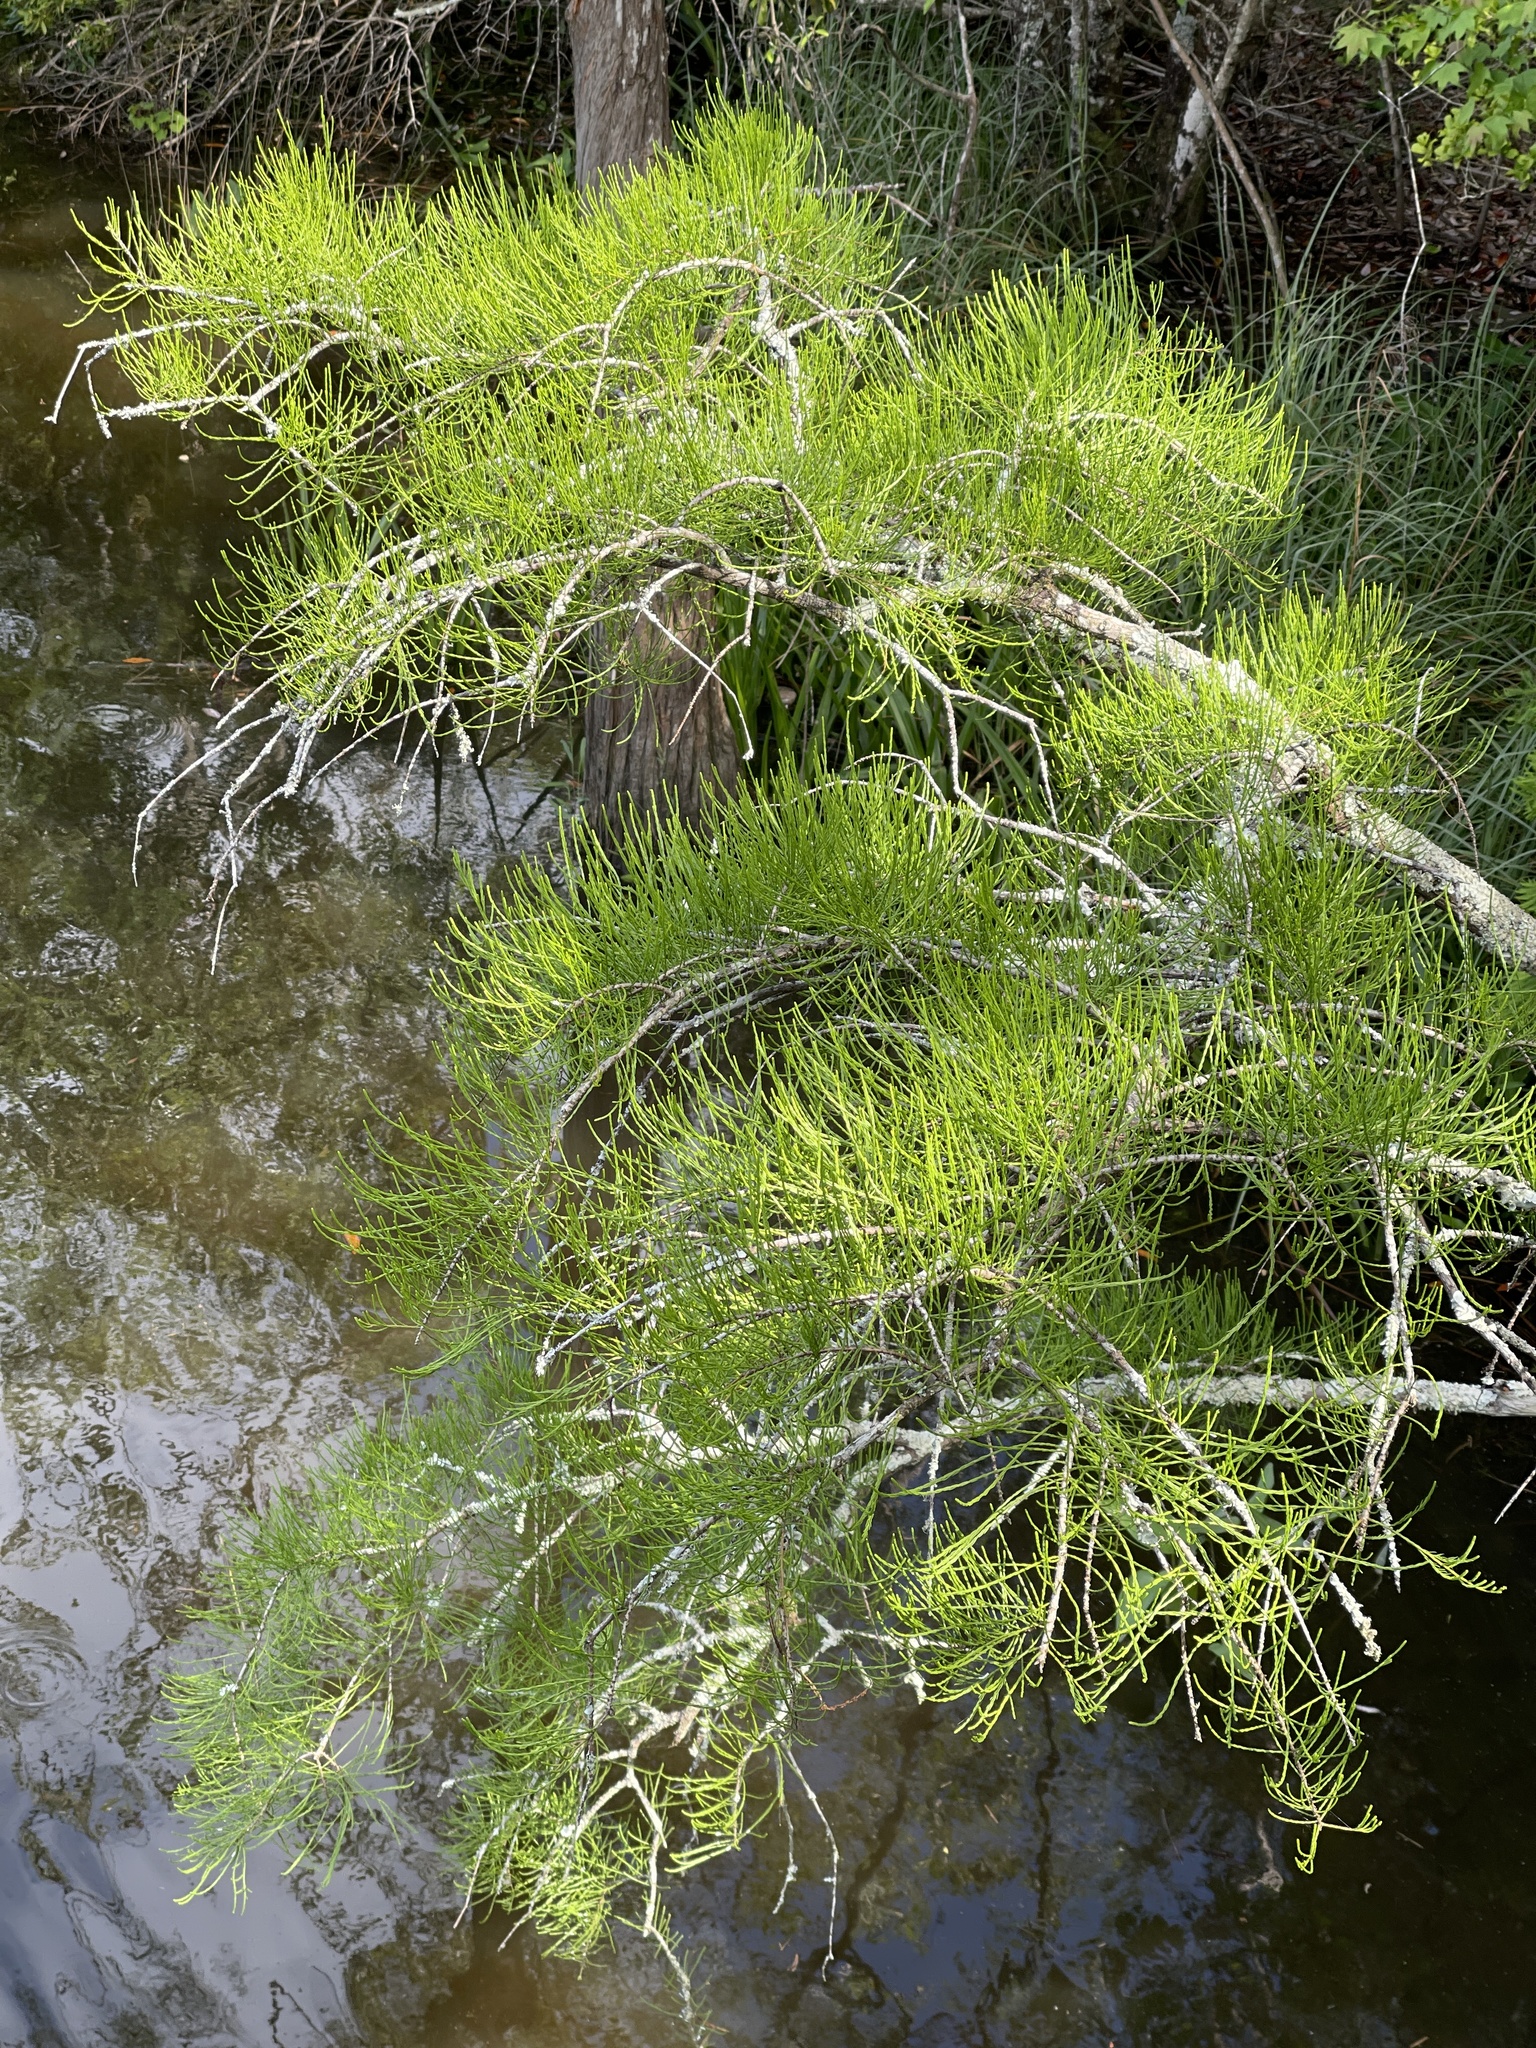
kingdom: Plantae
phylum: Tracheophyta
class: Pinopsida
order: Pinales
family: Cupressaceae
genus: Taxodium
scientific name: Taxodium distichum
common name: Bald cypress
